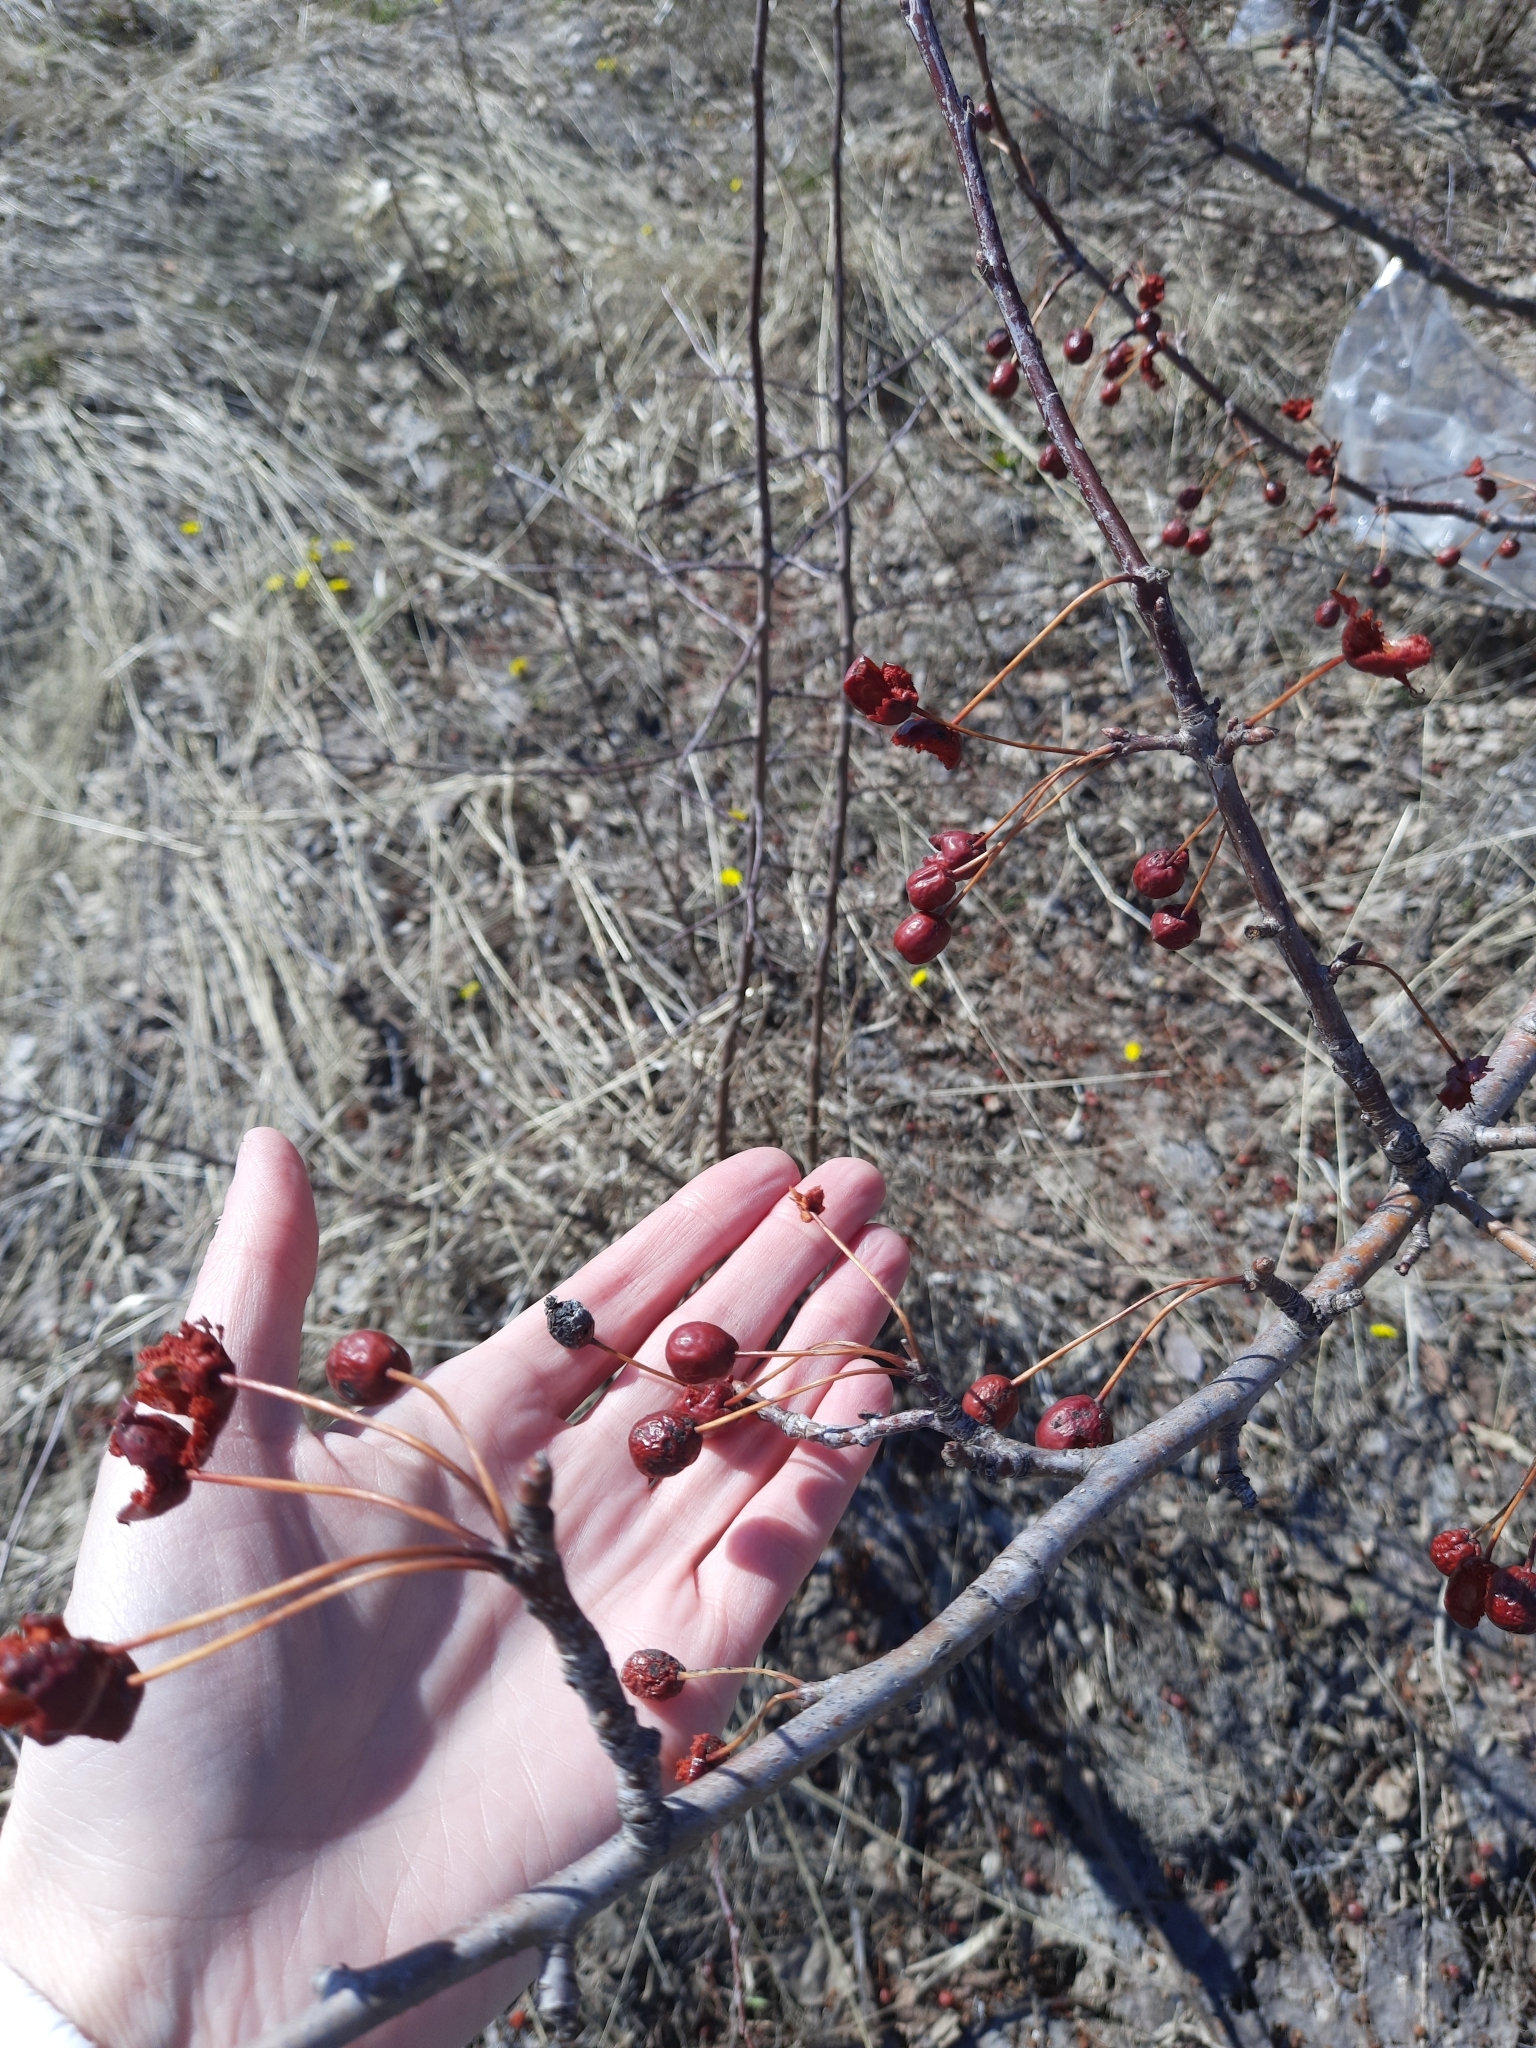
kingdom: Plantae
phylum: Tracheophyta
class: Magnoliopsida
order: Rosales
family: Rosaceae
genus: Malus
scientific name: Malus baccata
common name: Siberian crab
